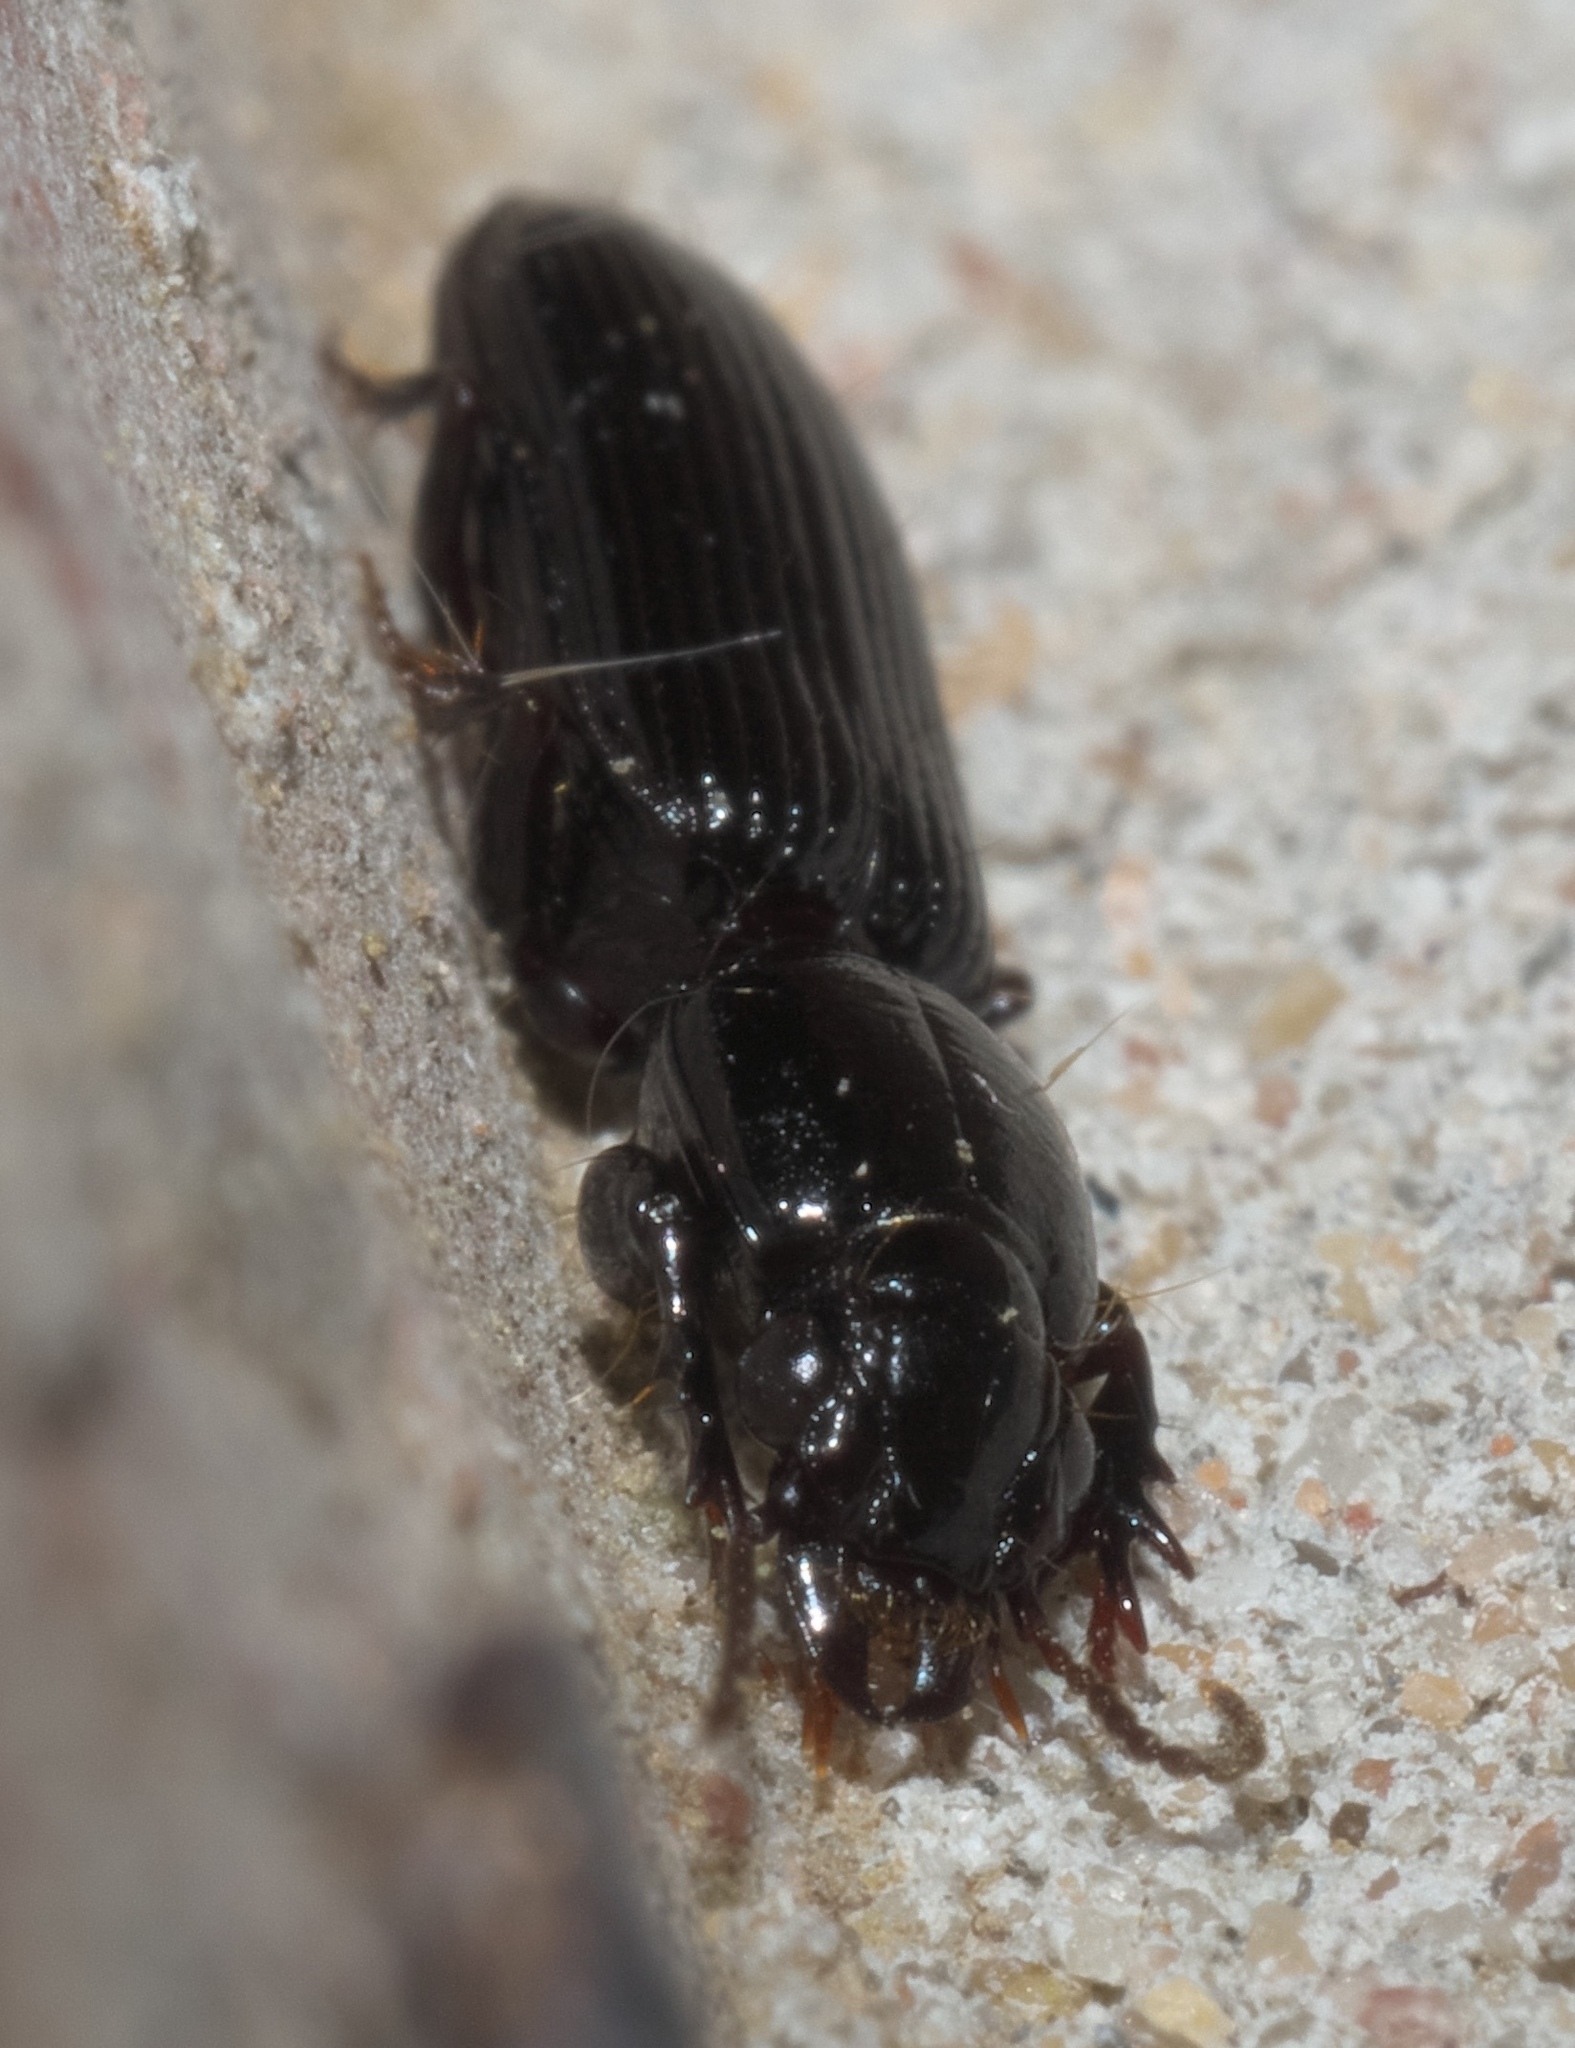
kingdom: Animalia
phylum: Arthropoda
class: Insecta
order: Coleoptera
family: Carabidae
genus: Semiclivina
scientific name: Semiclivina dentipes
